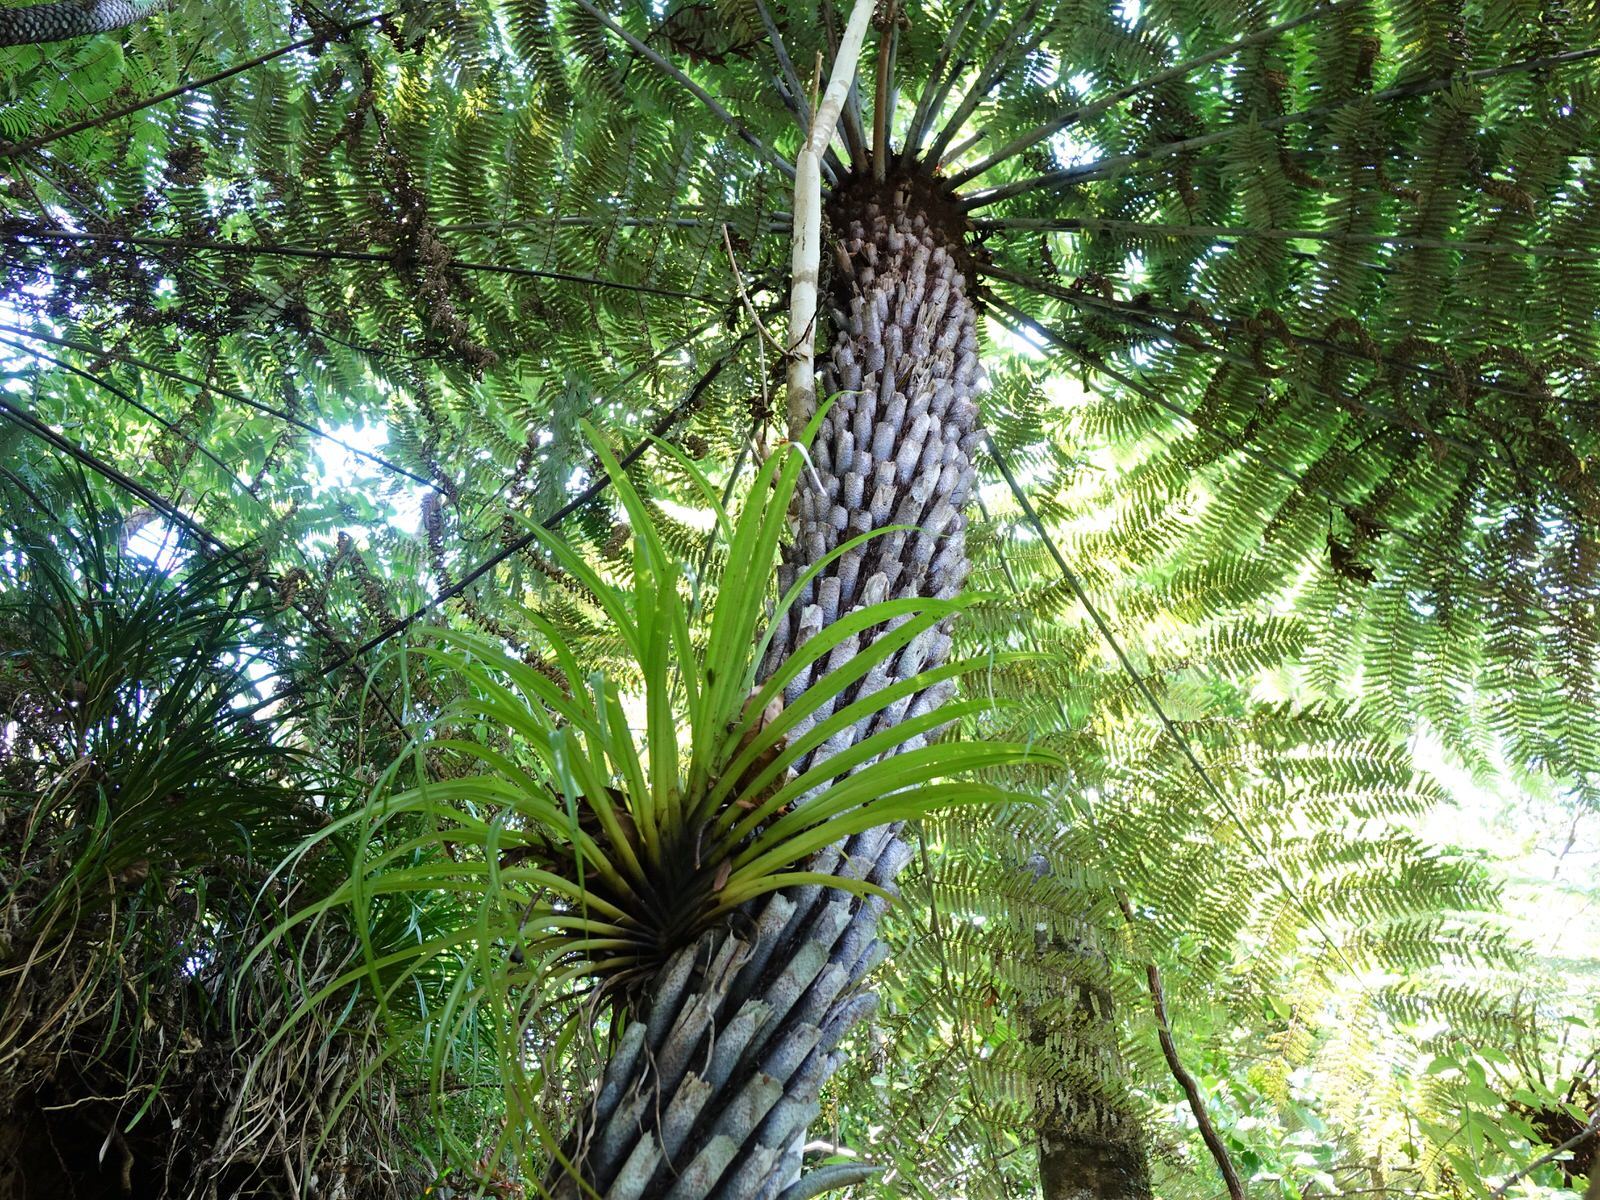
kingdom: Plantae
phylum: Tracheophyta
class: Liliopsida
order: Asparagales
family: Asteliaceae
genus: Astelia
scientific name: Astelia hastata
